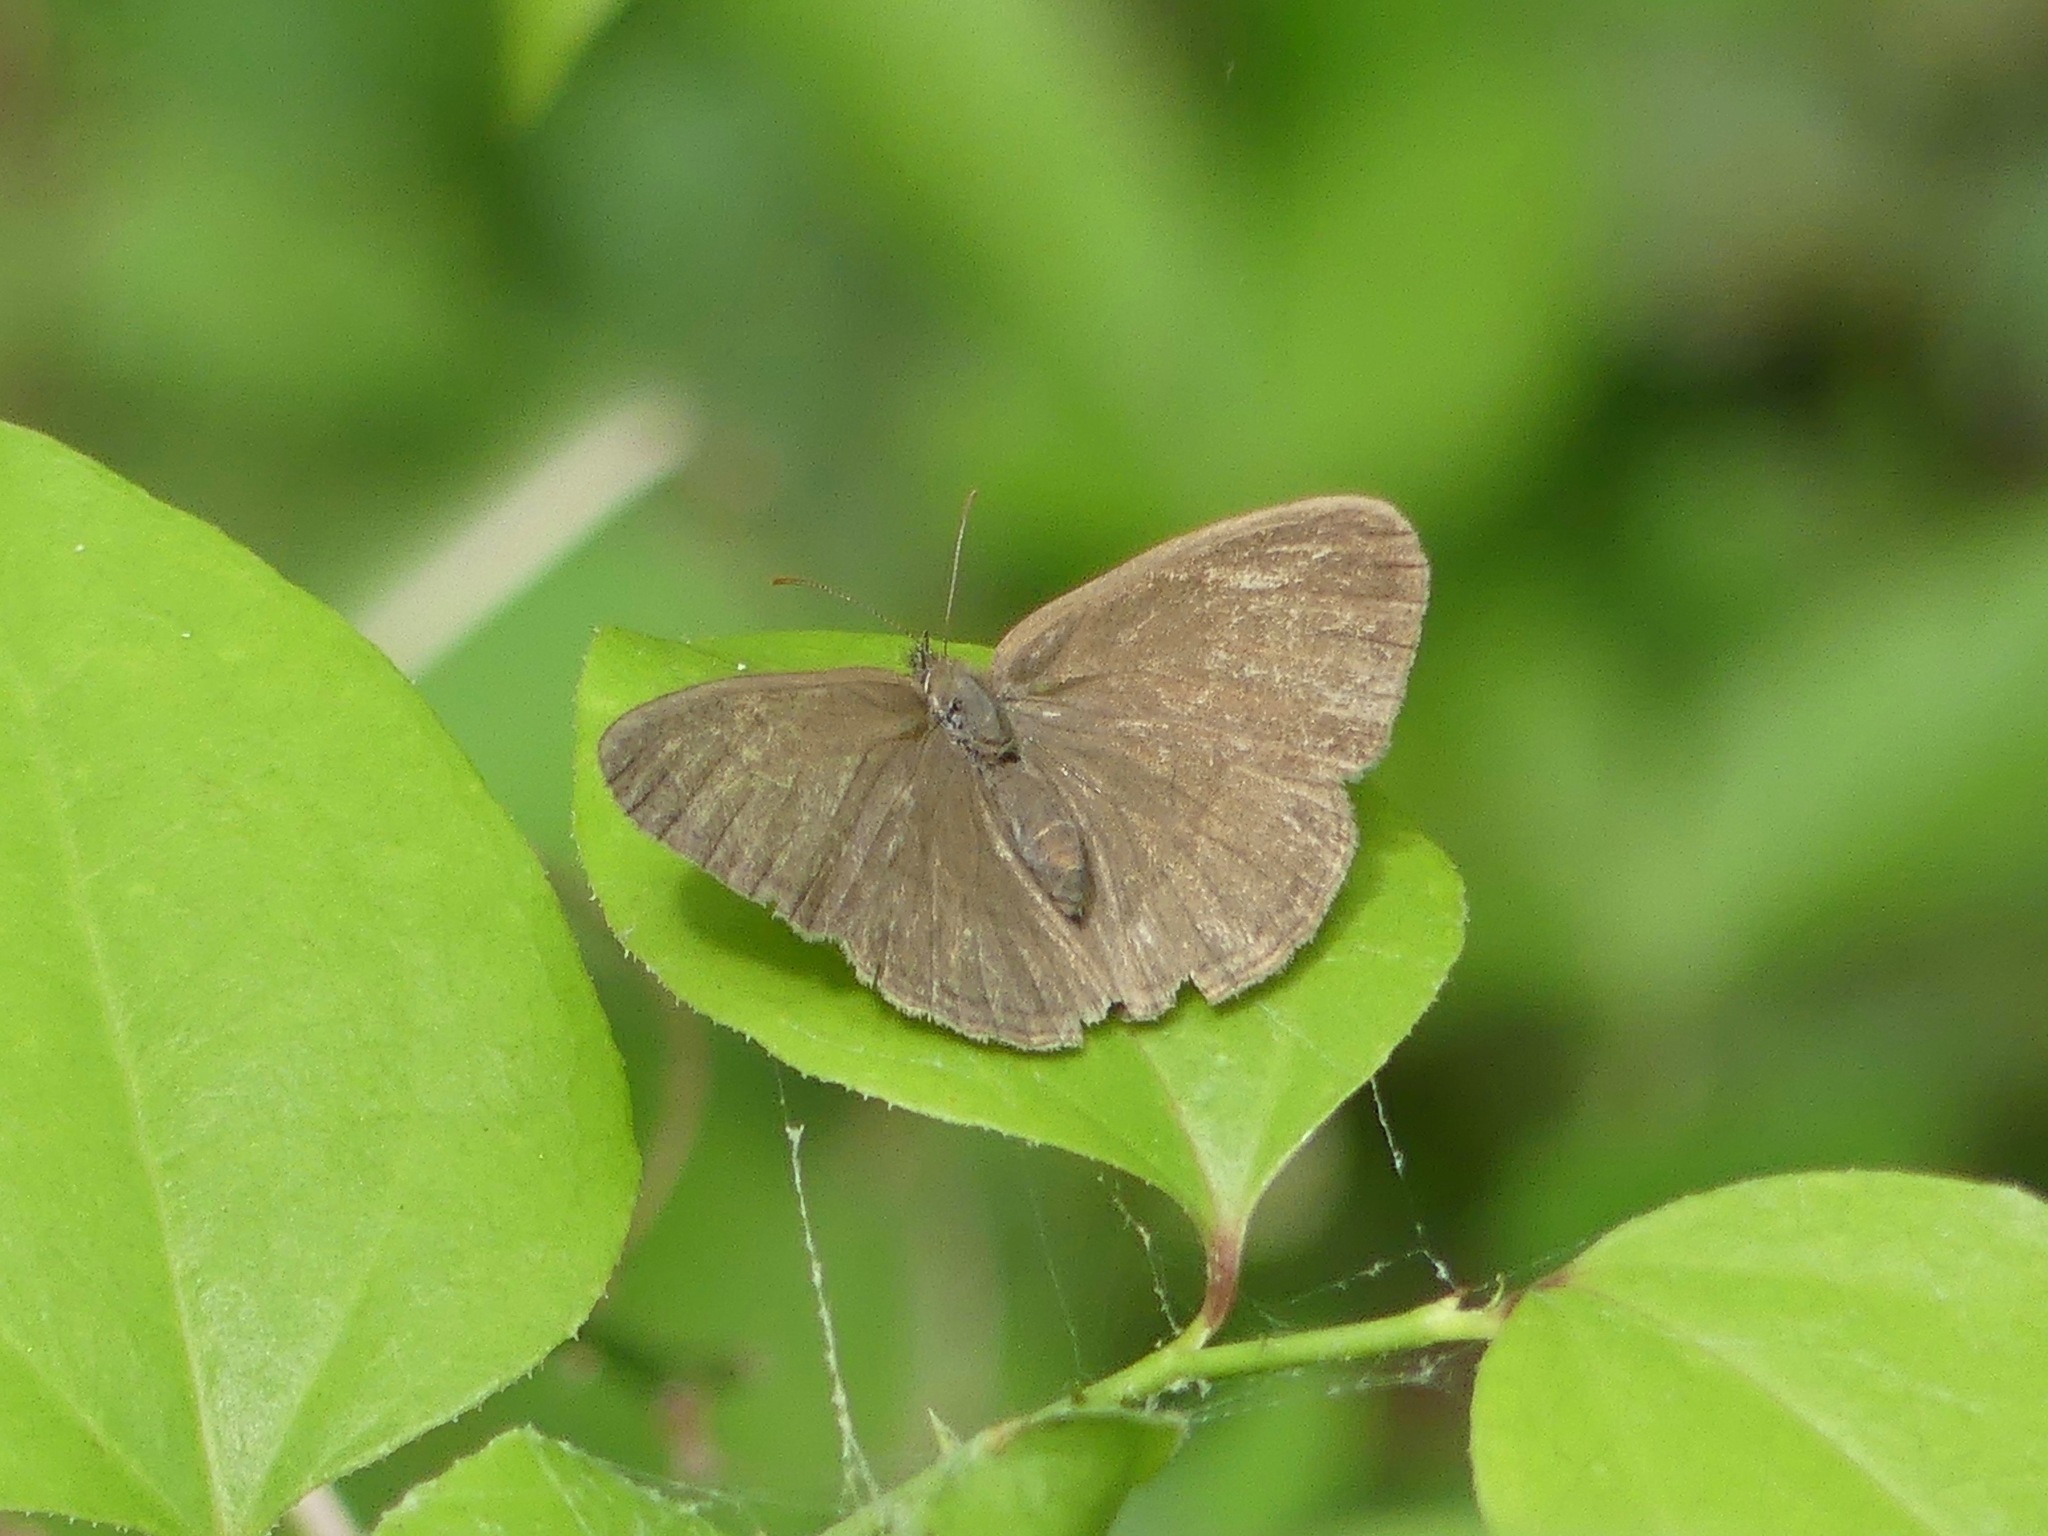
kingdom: Animalia
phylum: Arthropoda
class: Insecta
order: Lepidoptera
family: Nymphalidae
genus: Hermeuptychia
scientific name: Hermeuptychia intricata
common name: Intricate satyr
